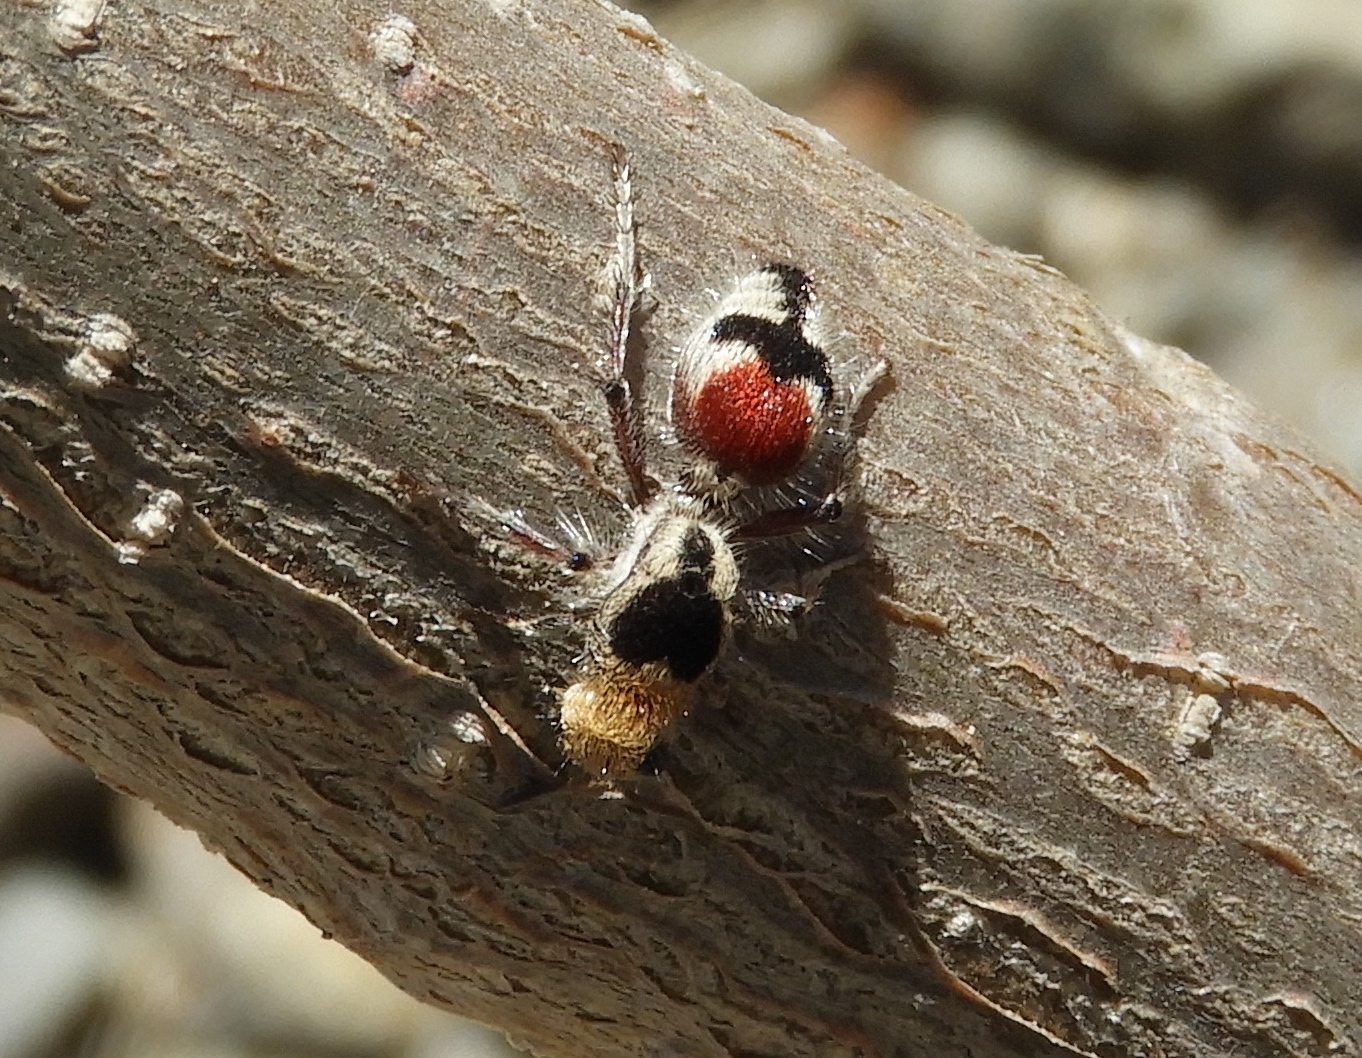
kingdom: Animalia
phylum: Arthropoda
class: Insecta
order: Hymenoptera
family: Mutillidae
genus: Dasymutilla
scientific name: Dasymutilla
